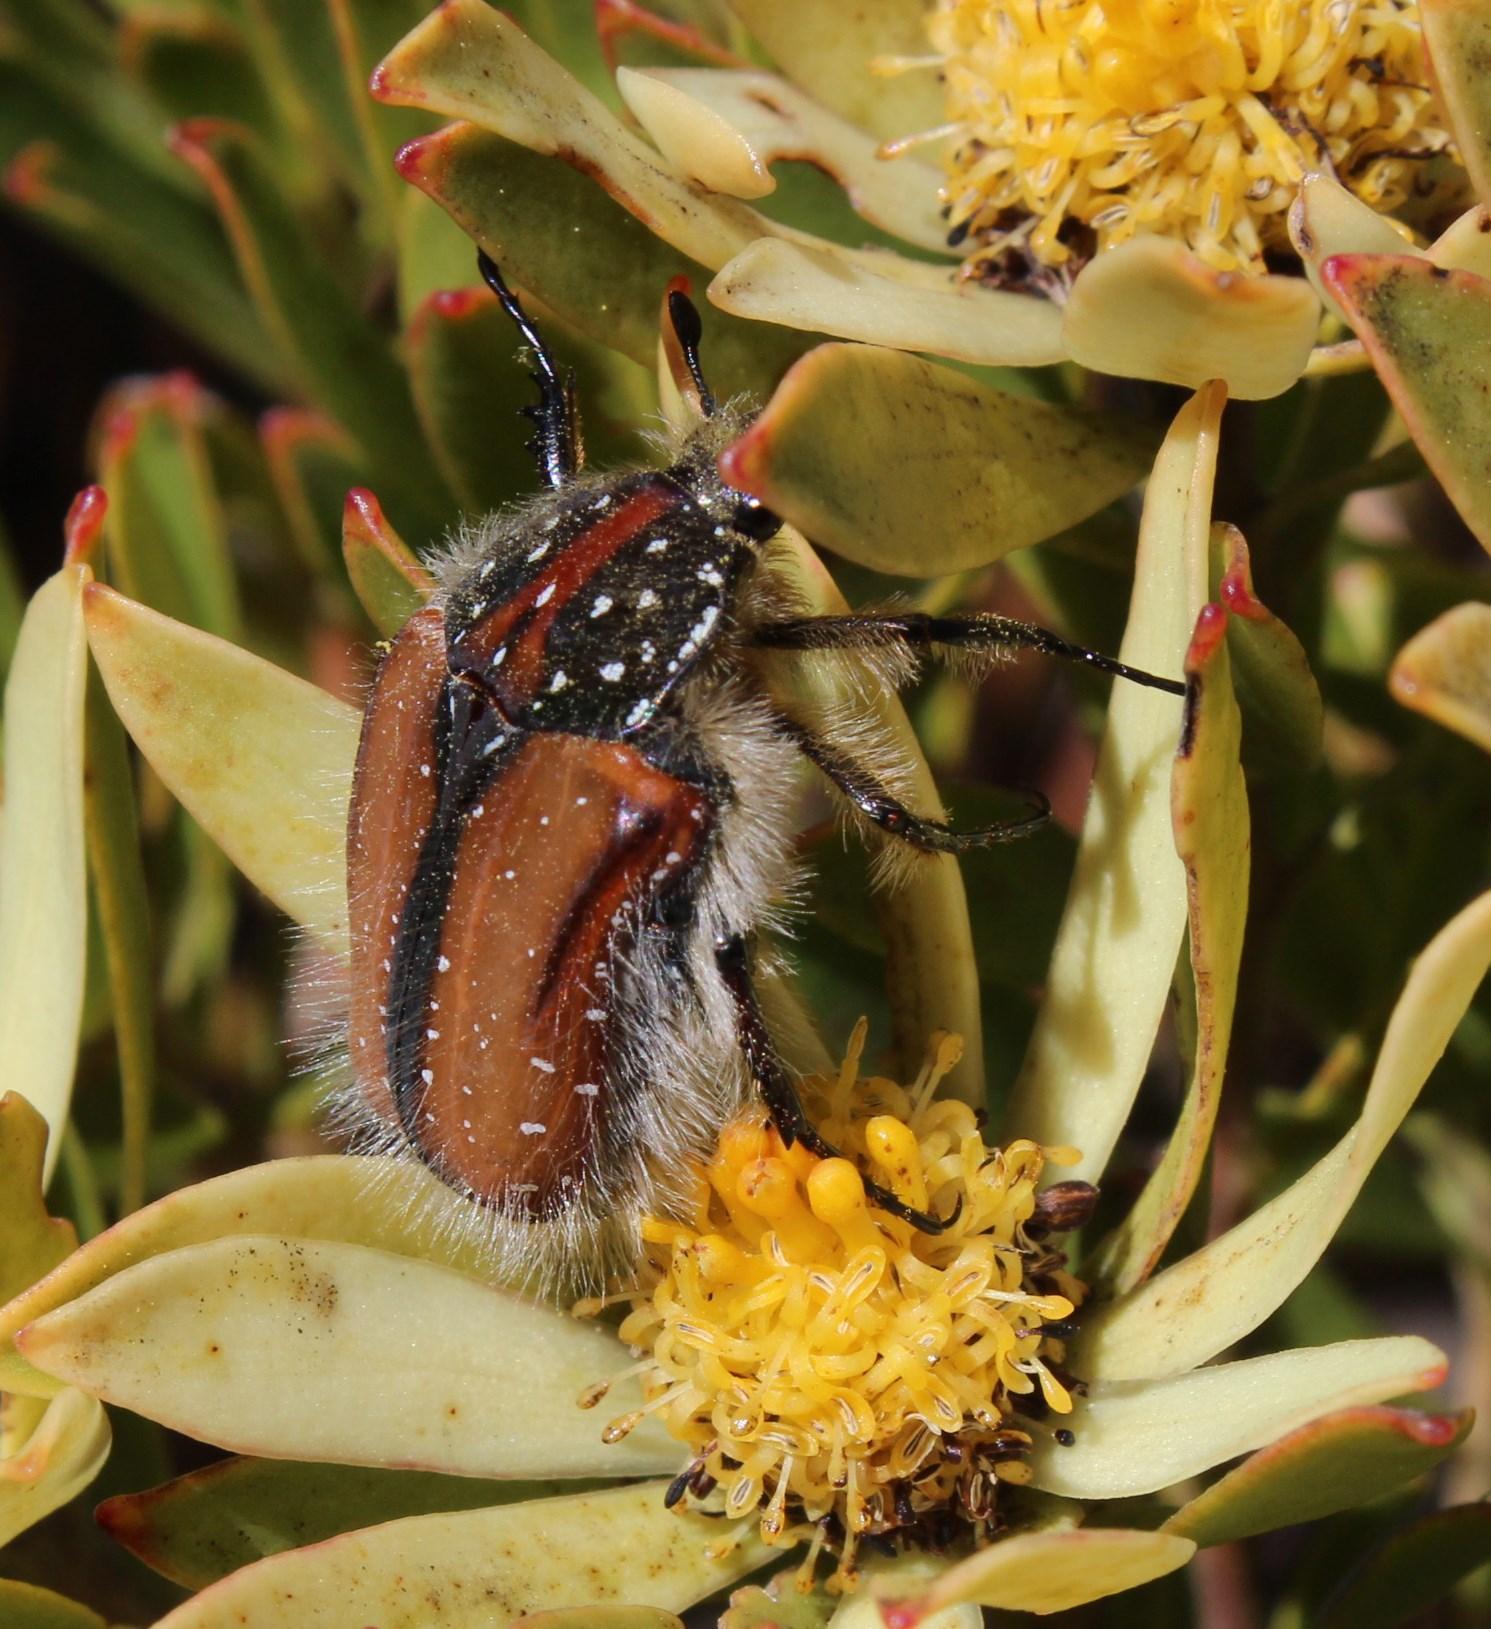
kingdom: Animalia
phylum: Arthropoda
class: Insecta
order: Coleoptera
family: Scarabaeidae
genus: Trichostetha
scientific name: Trichostetha capensis
